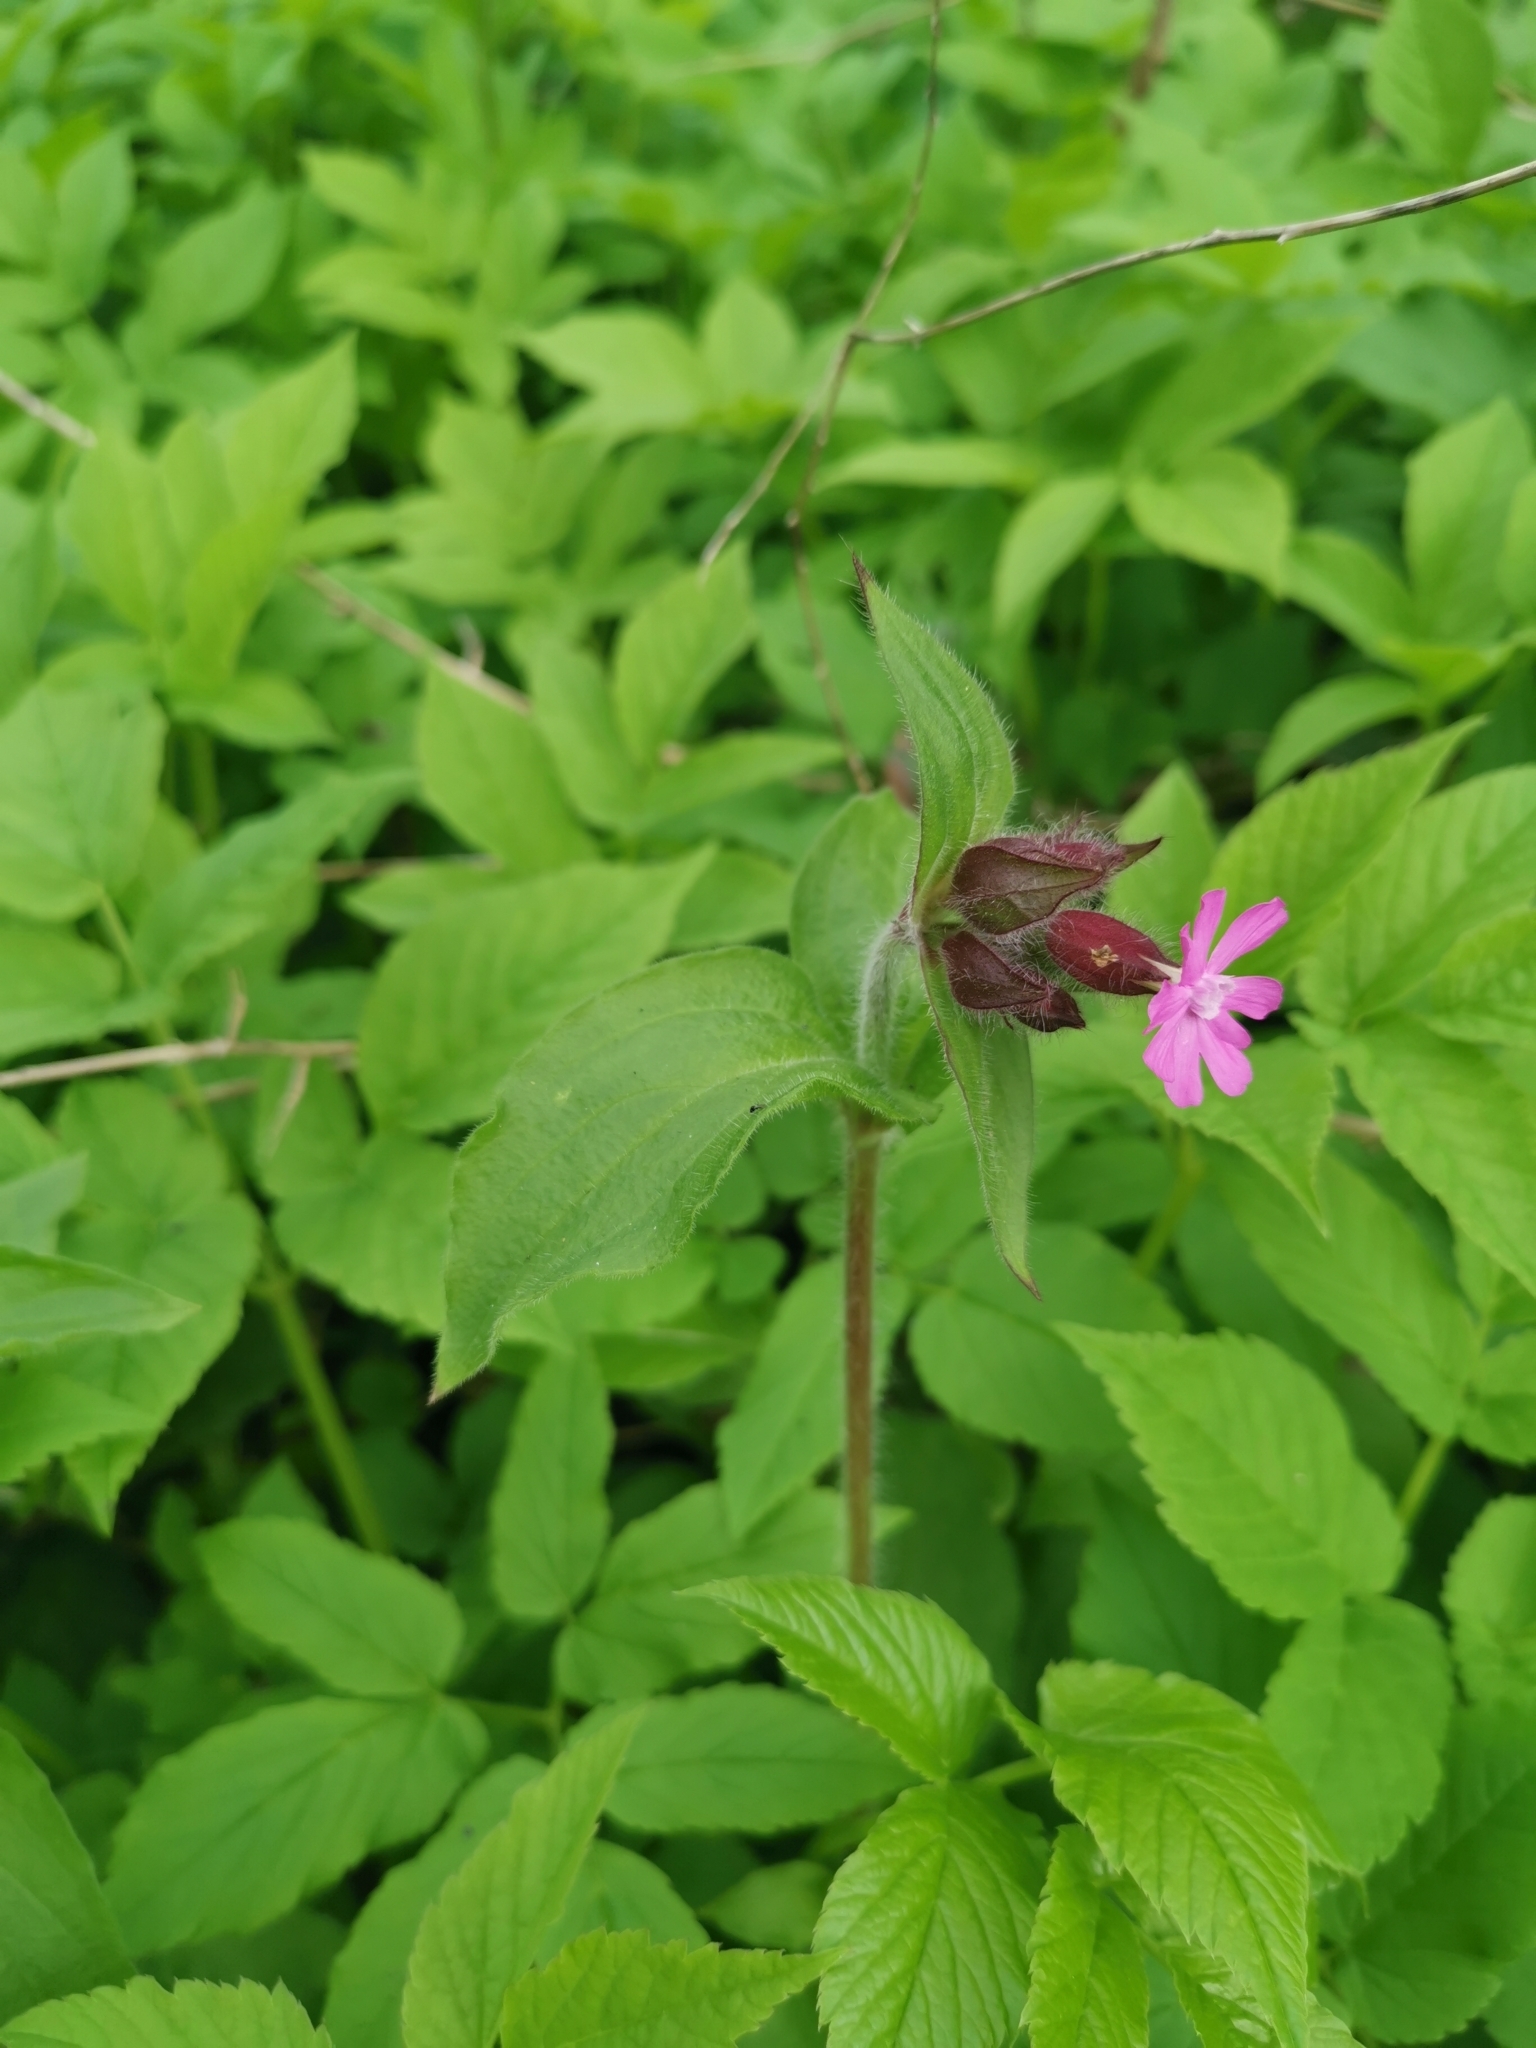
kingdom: Plantae
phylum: Tracheophyta
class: Magnoliopsida
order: Caryophyllales
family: Caryophyllaceae
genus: Silene
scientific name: Silene dioica
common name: Red campion
